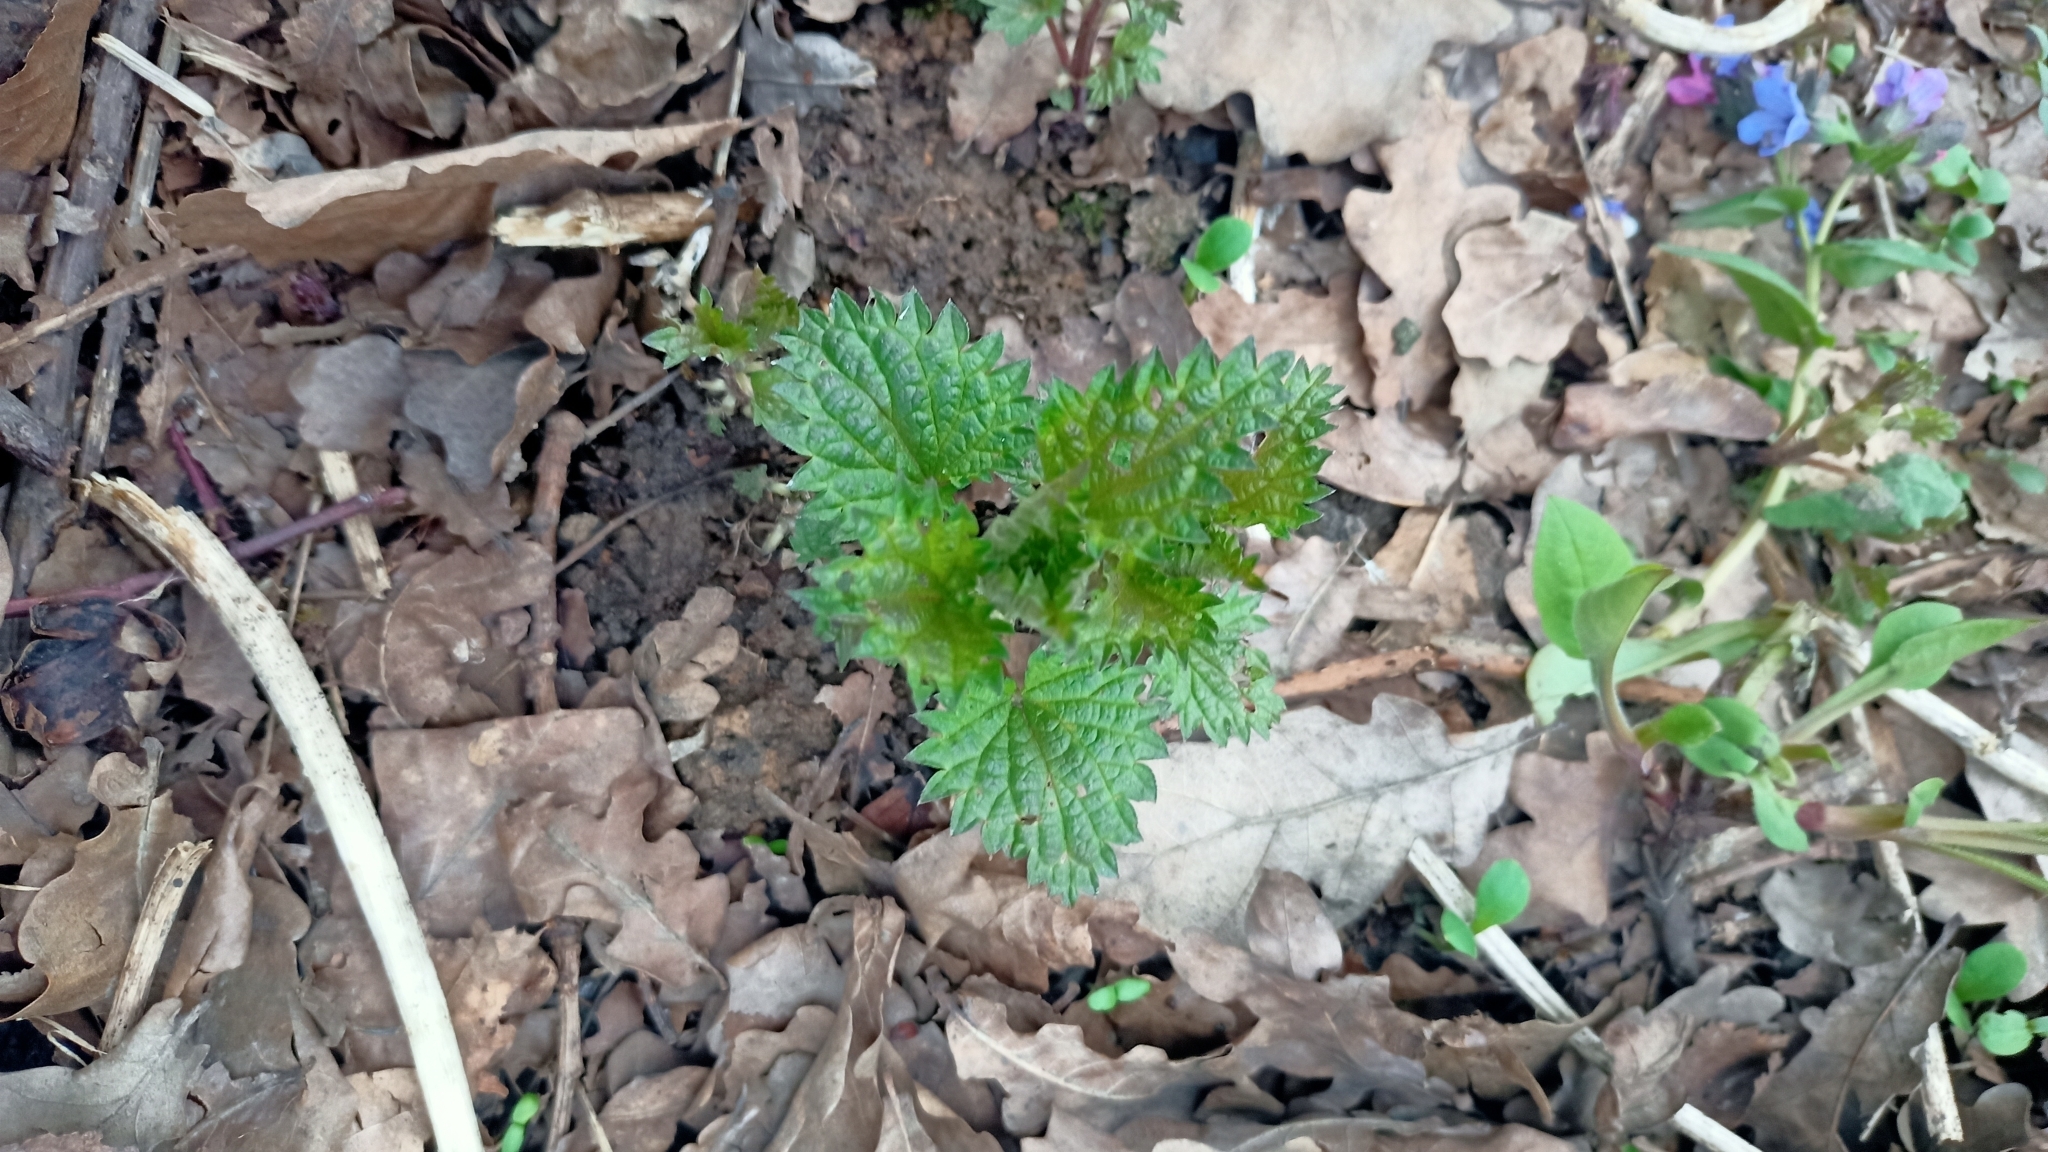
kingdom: Plantae
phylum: Tracheophyta
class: Magnoliopsida
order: Rosales
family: Urticaceae
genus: Urtica
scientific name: Urtica dioica
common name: Common nettle
